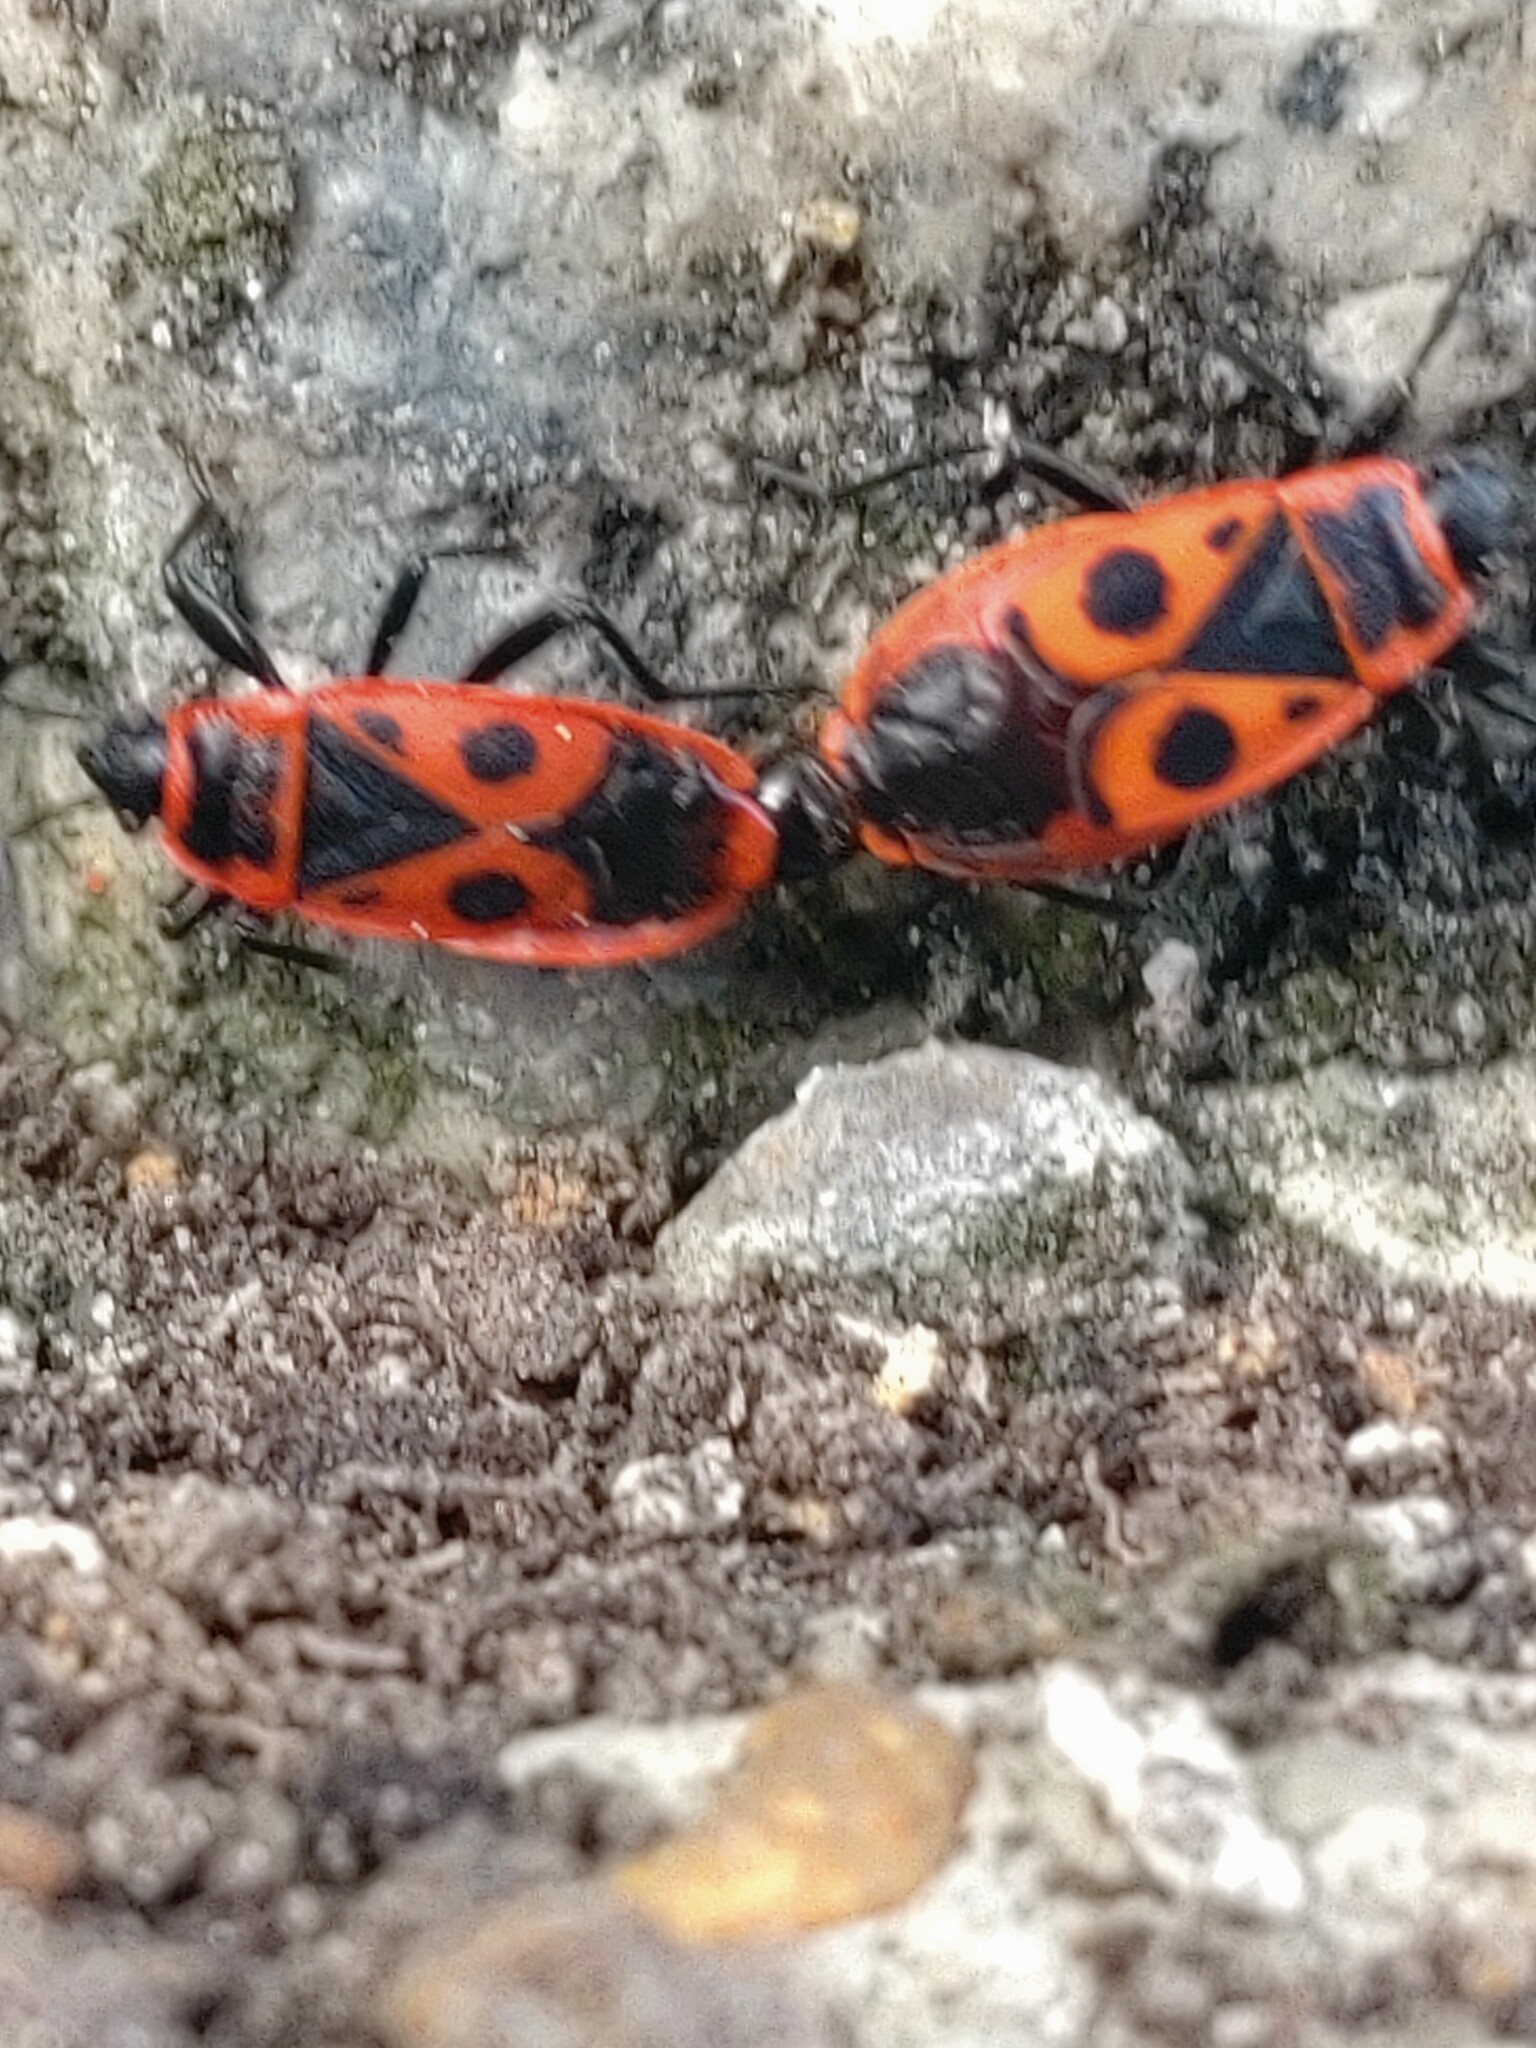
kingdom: Animalia
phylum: Arthropoda
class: Insecta
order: Hemiptera
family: Pyrrhocoridae
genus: Pyrrhocoris
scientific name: Pyrrhocoris apterus
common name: Firebug
